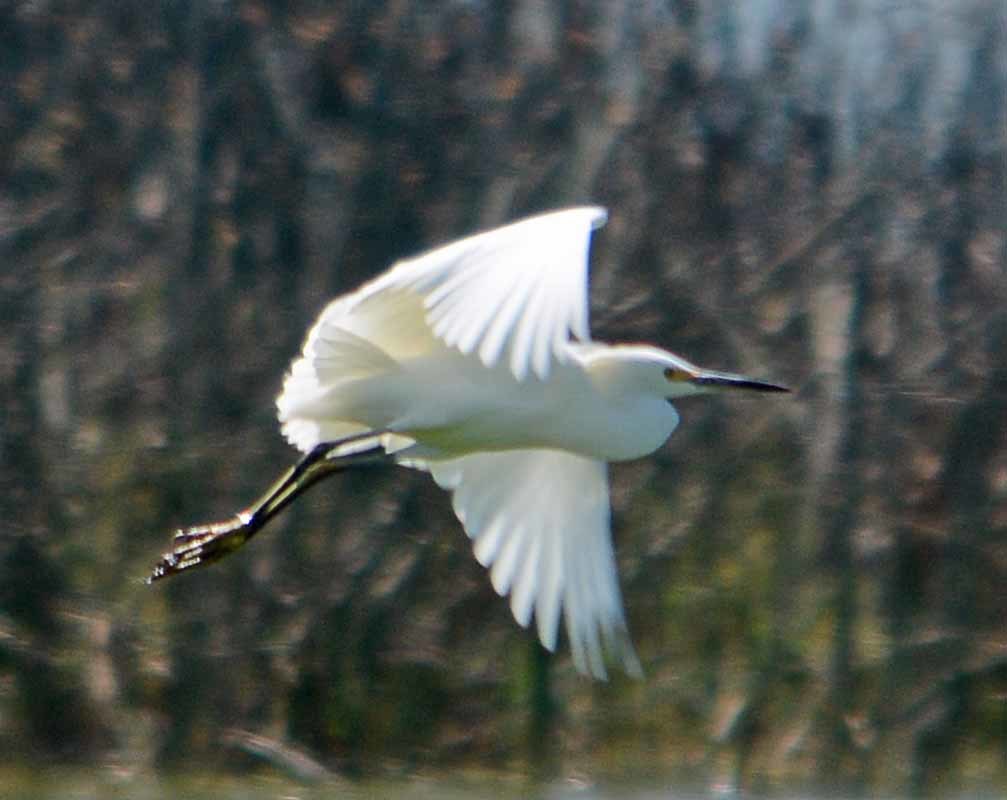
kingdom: Animalia
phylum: Chordata
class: Aves
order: Pelecaniformes
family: Ardeidae
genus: Egretta
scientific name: Egretta thula
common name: Snowy egret
